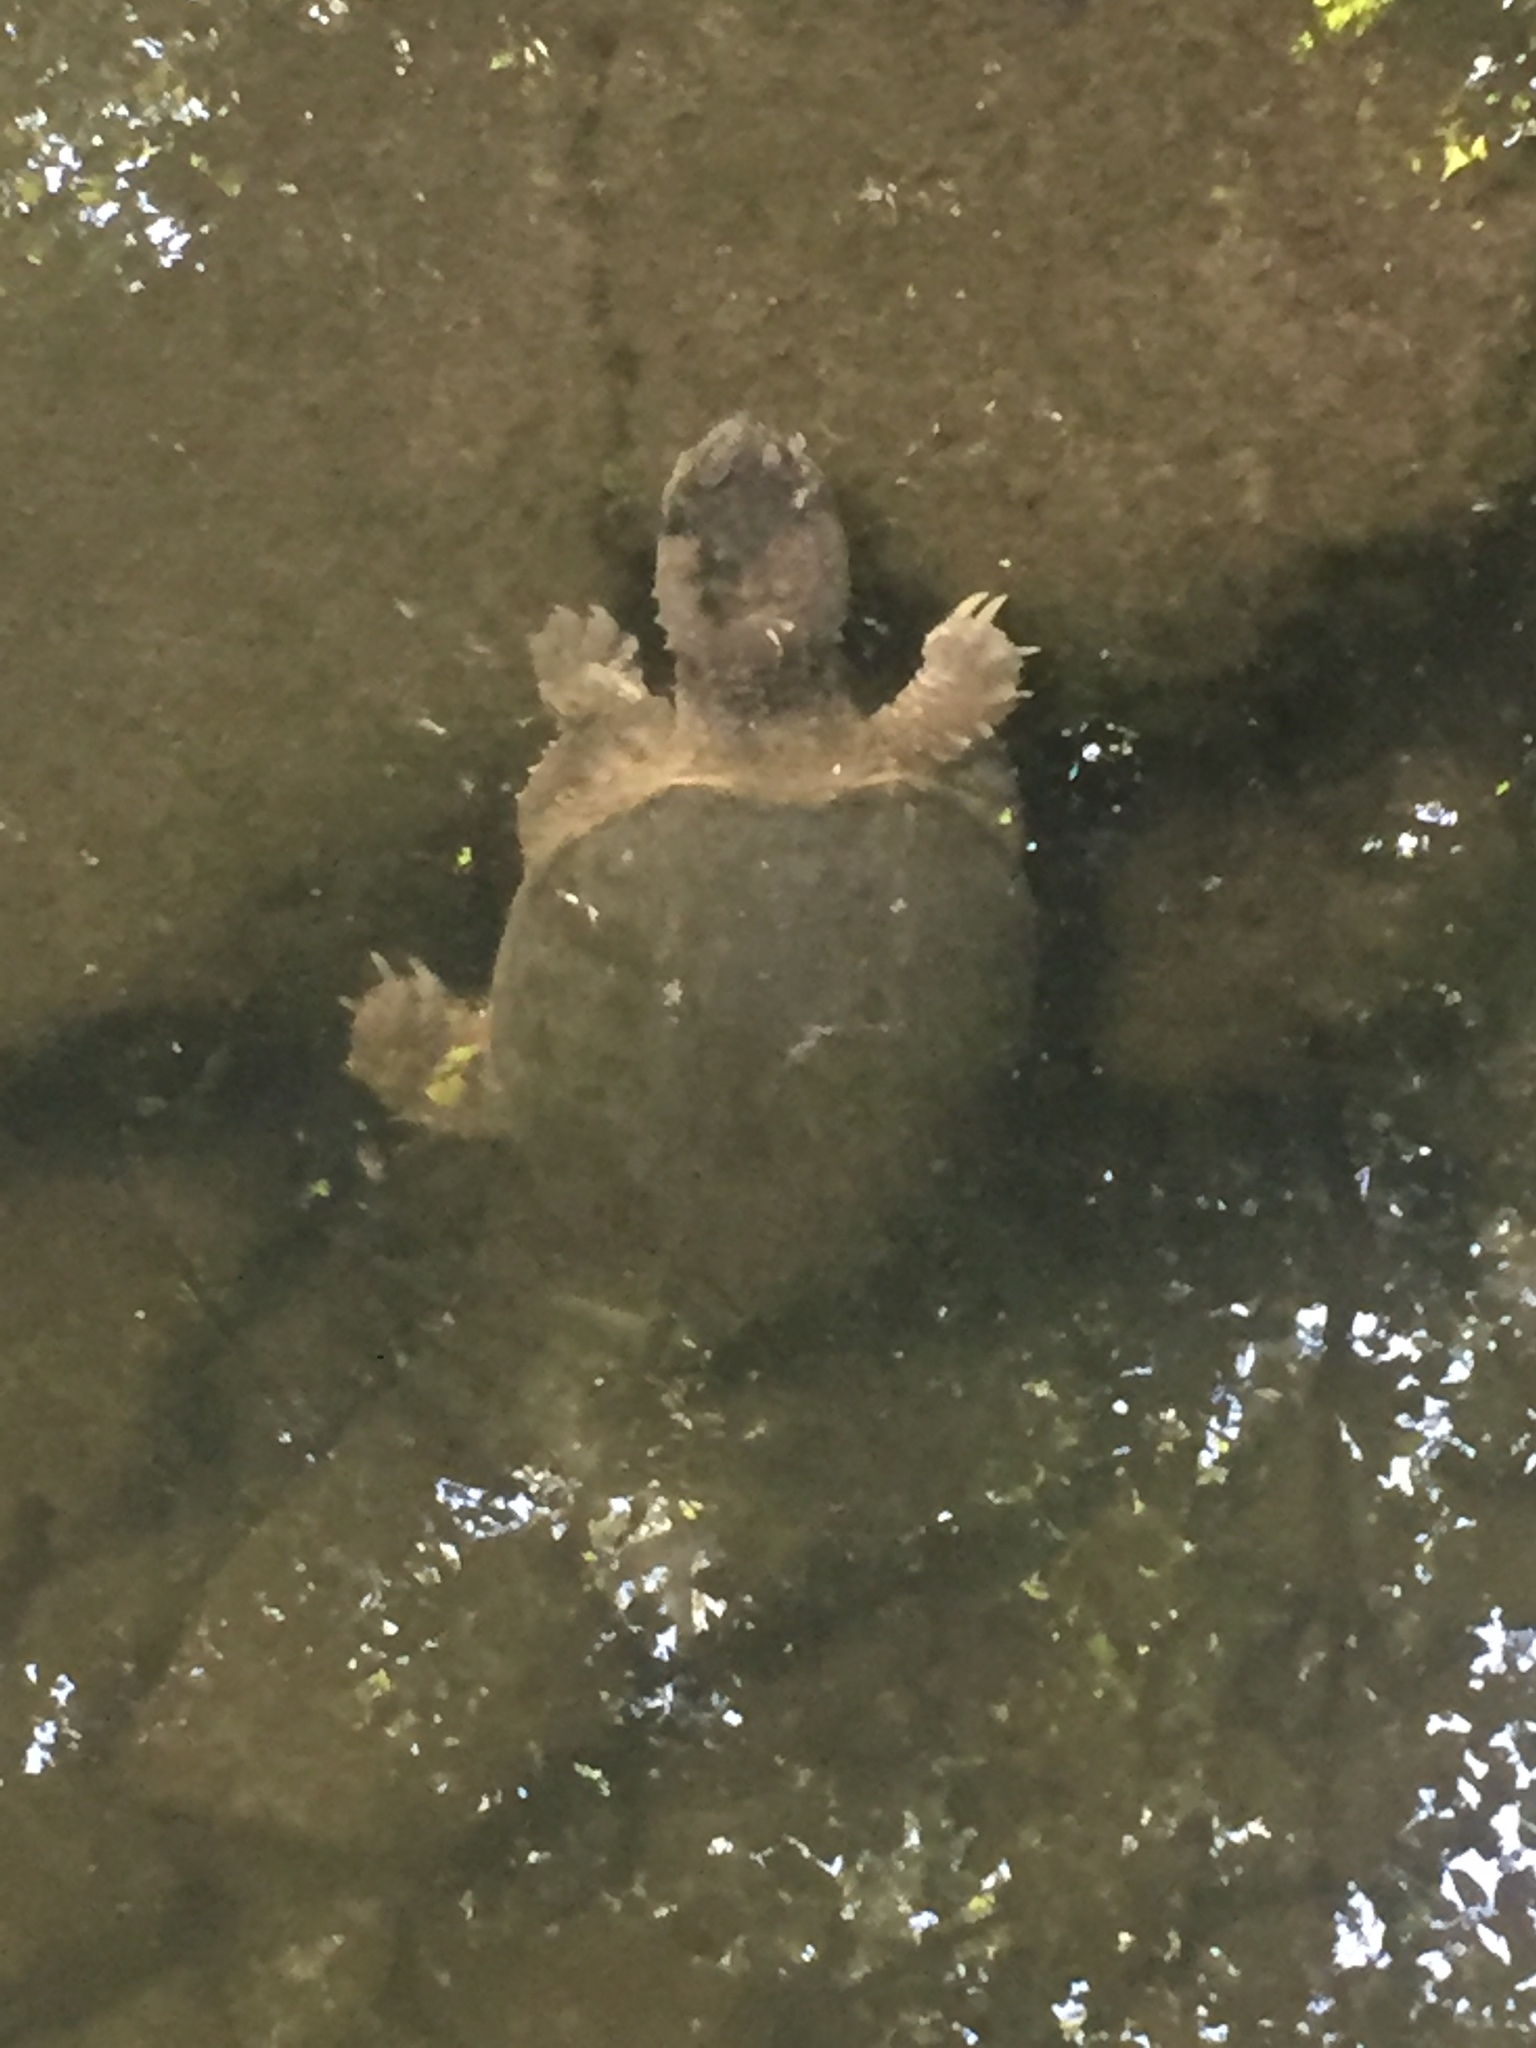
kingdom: Animalia
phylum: Chordata
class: Testudines
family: Chelydridae
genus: Chelydra
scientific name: Chelydra serpentina
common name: Common snapping turtle
